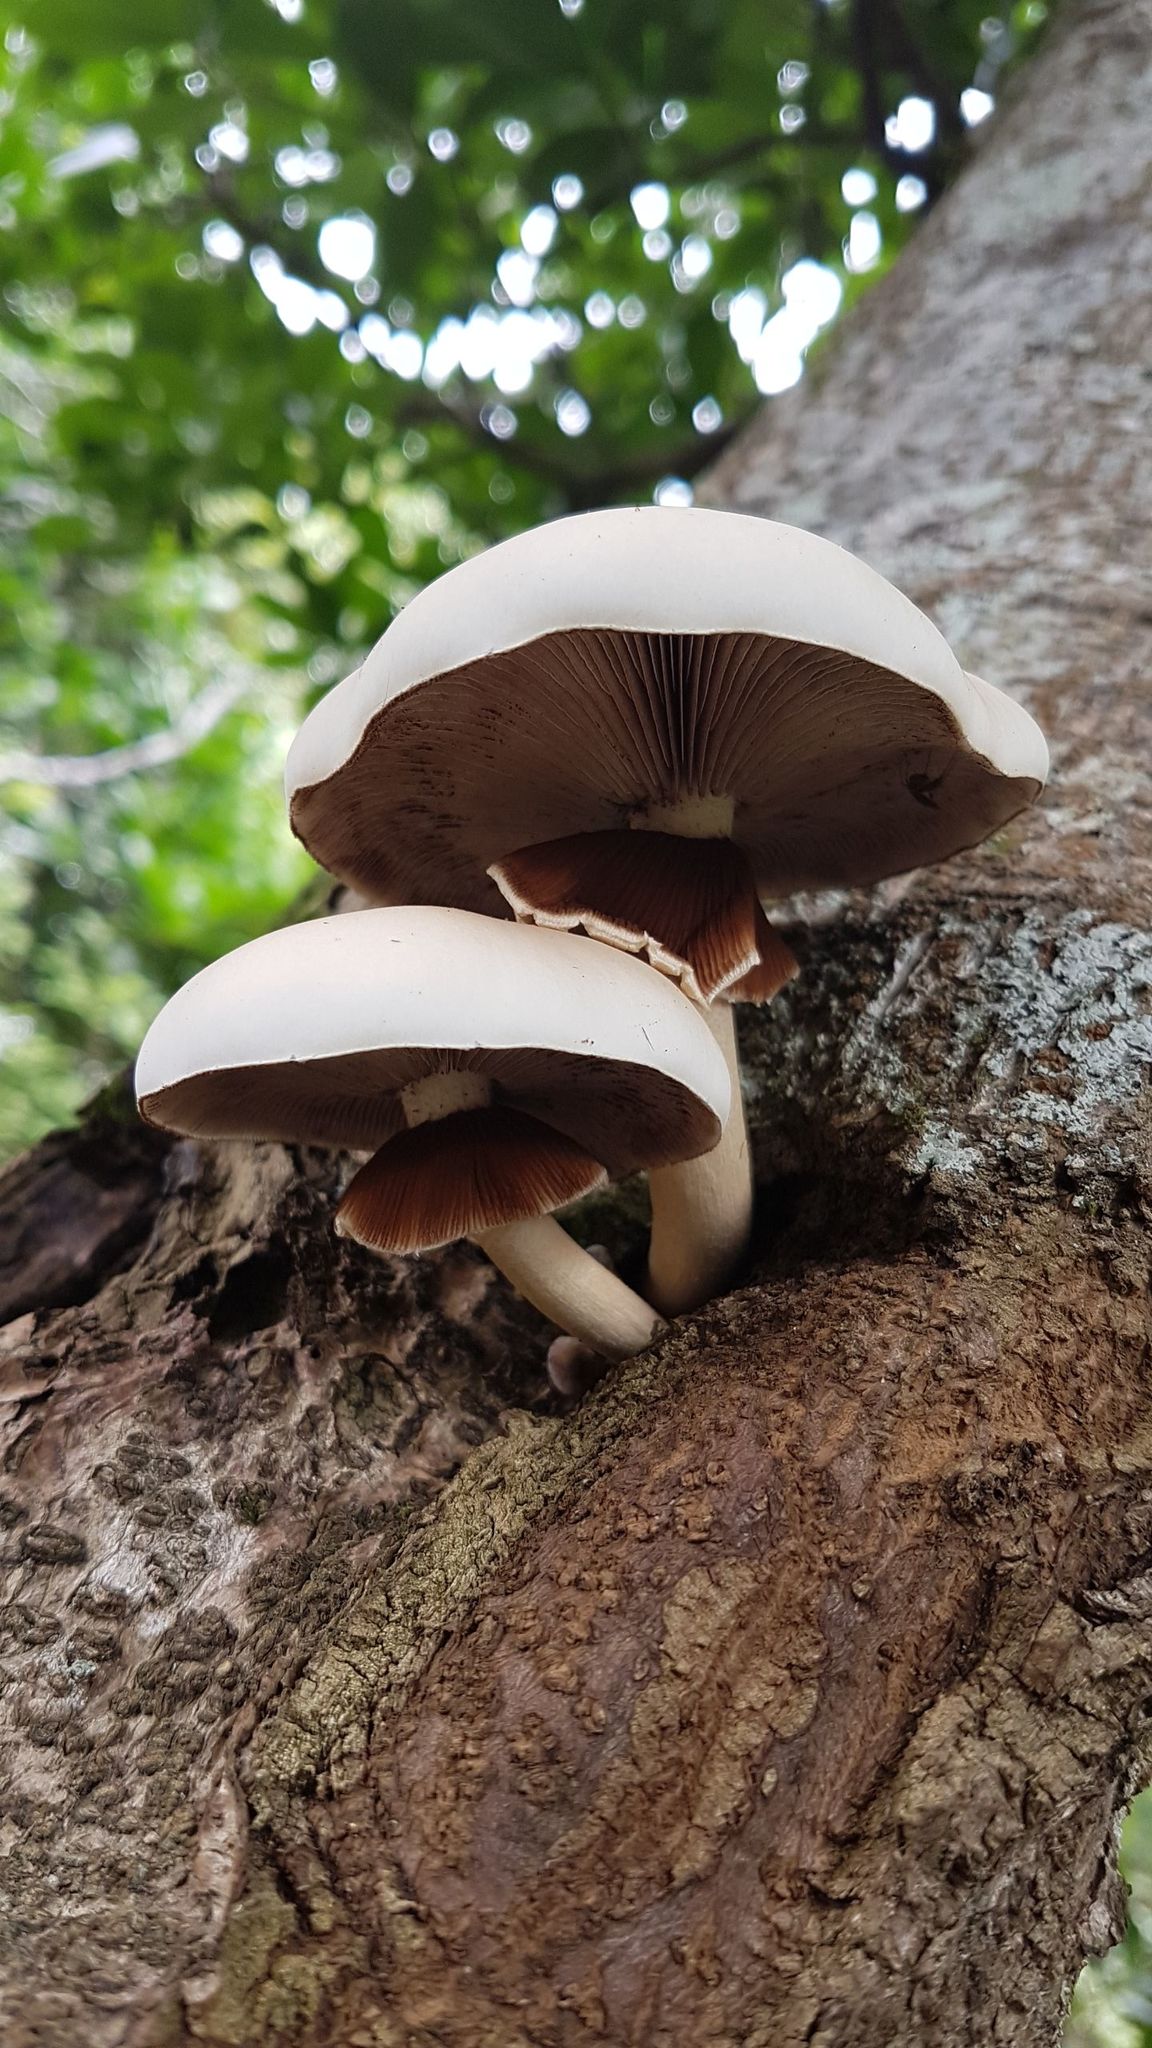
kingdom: Fungi
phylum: Basidiomycota
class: Agaricomycetes
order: Agaricales
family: Tubariaceae
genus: Cyclocybe
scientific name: Cyclocybe parasitica
